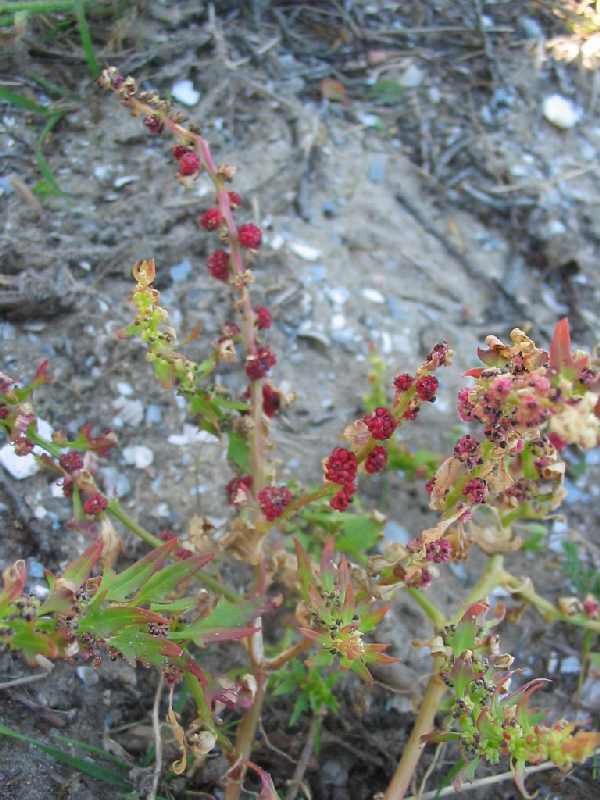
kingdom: Plantae
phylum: Tracheophyta
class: Magnoliopsida
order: Caryophyllales
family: Amaranthaceae
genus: Blitum
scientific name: Blitum virgatum
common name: Strawberry goosefoot
